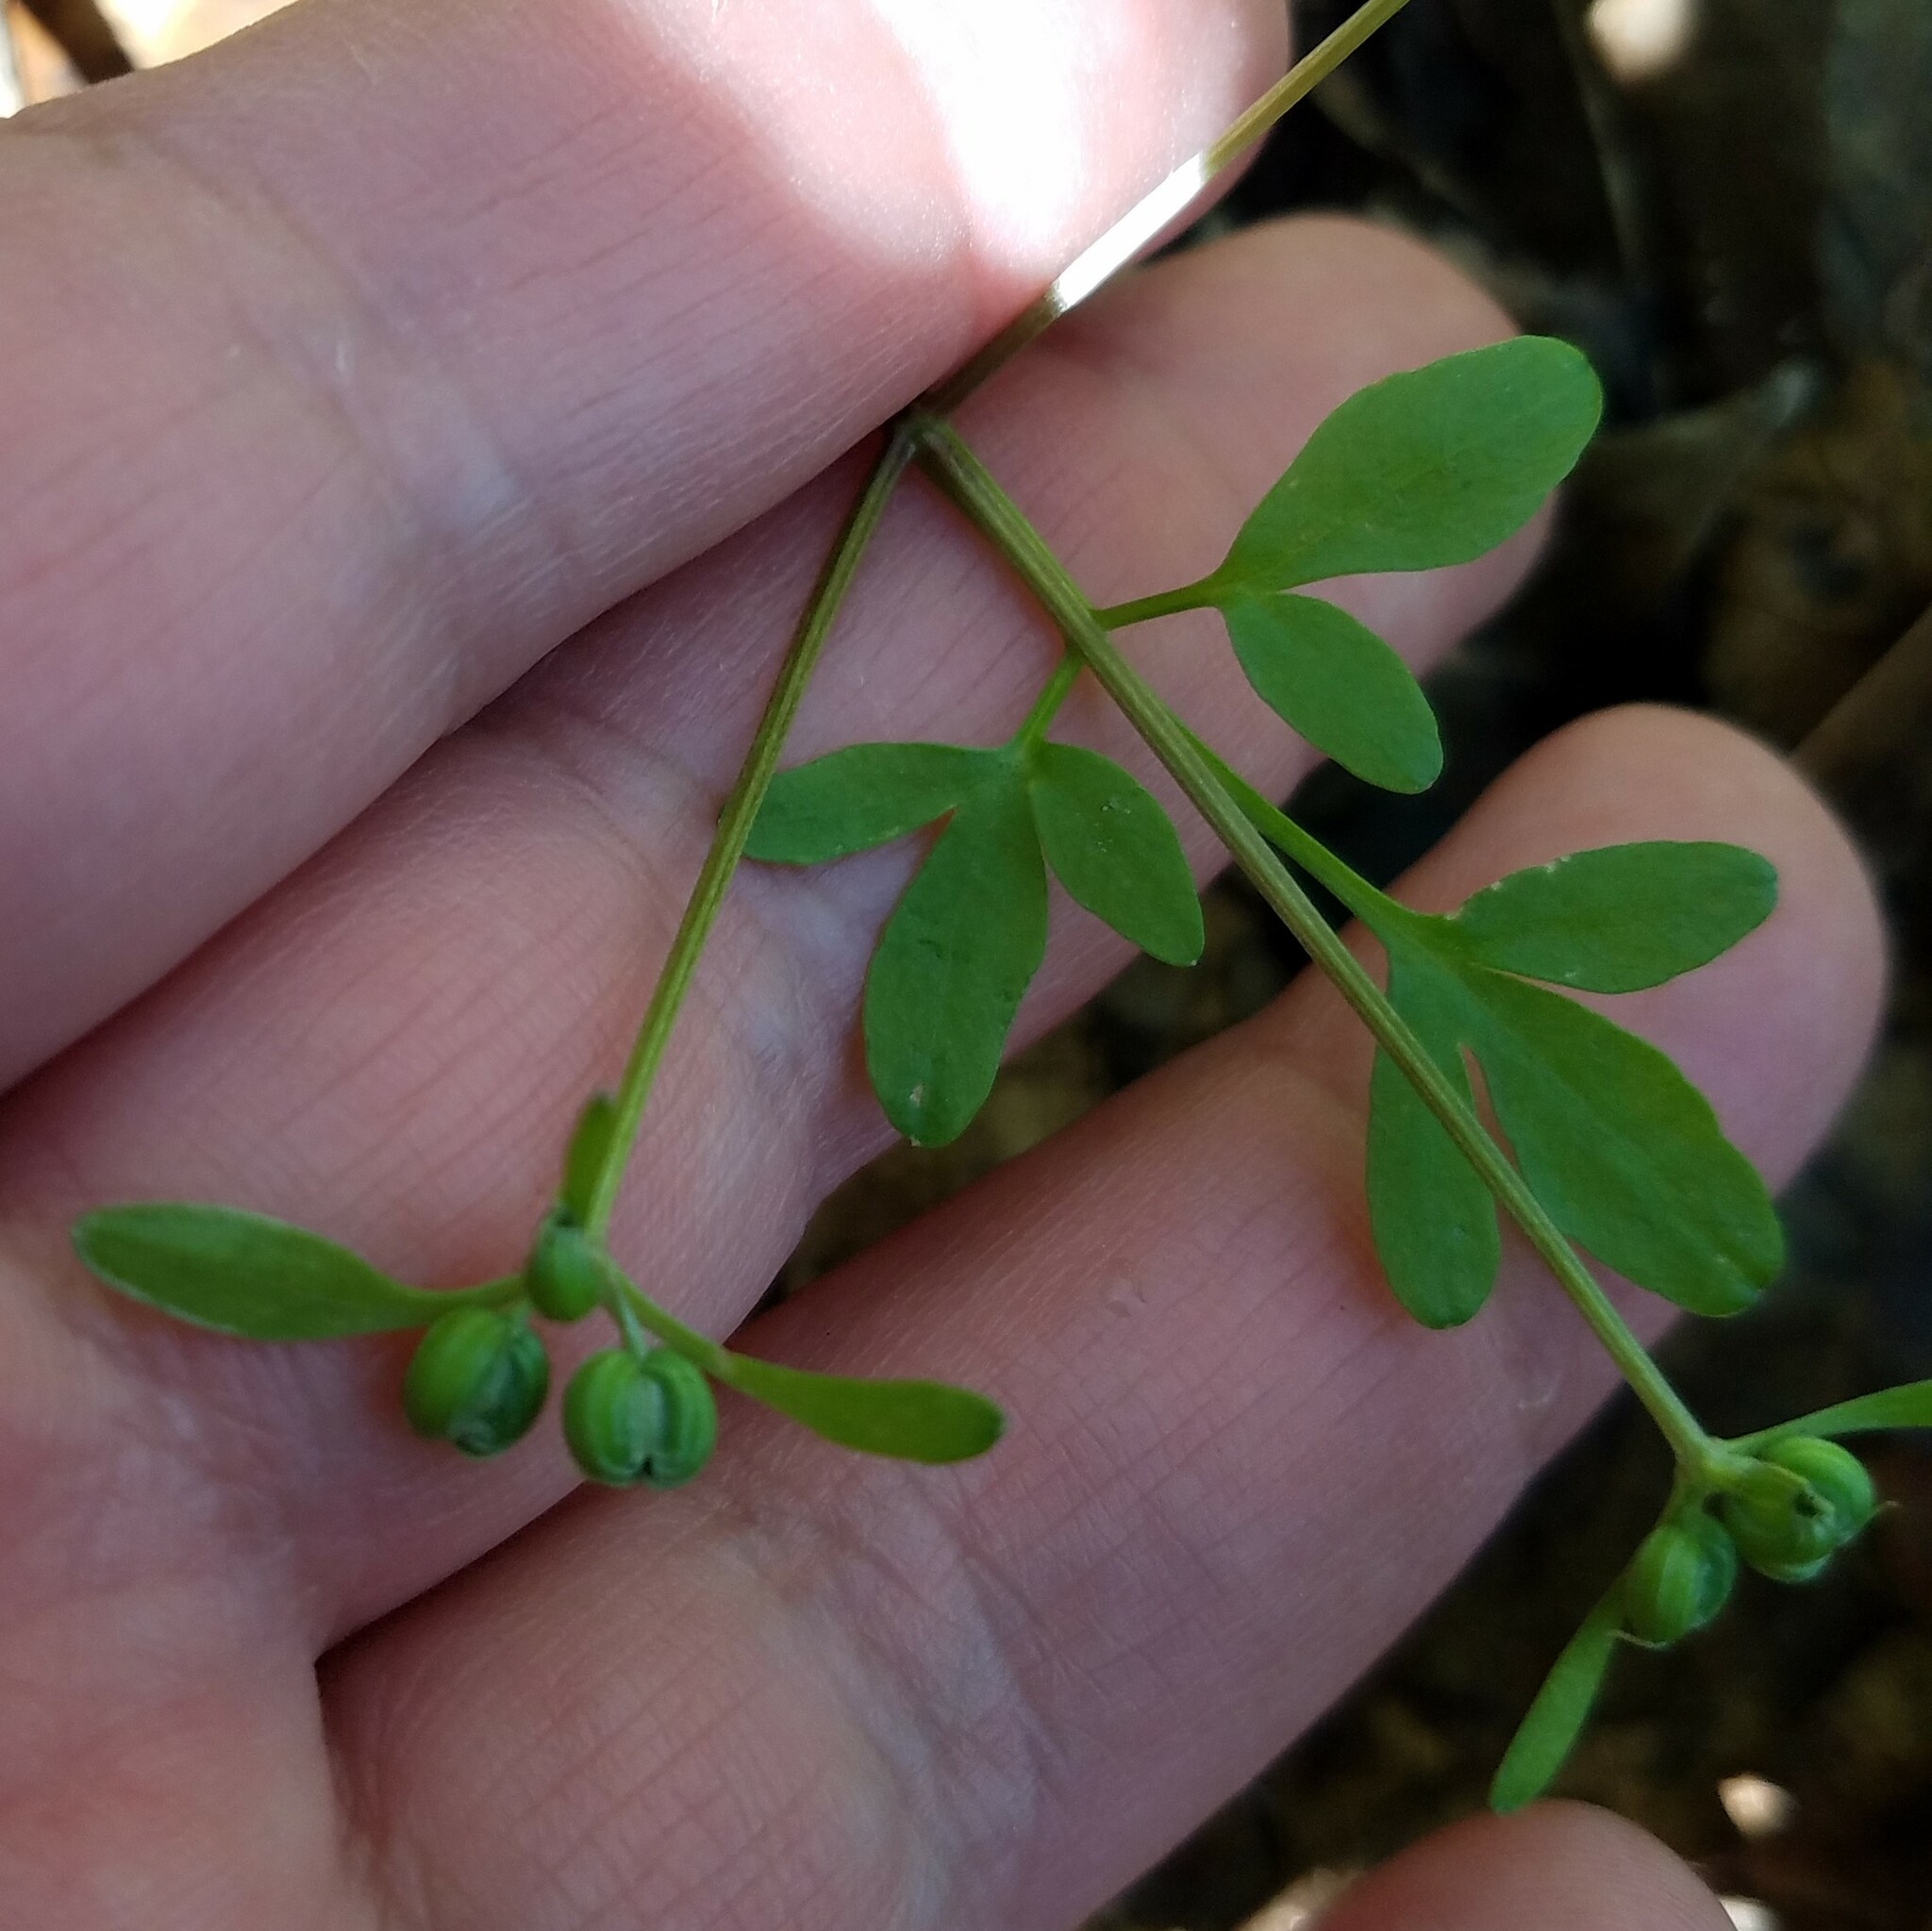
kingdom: Plantae
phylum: Tracheophyta
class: Magnoliopsida
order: Apiales
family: Apiaceae
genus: Erigenia
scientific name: Erigenia bulbosa
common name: Pepper-and-salt
